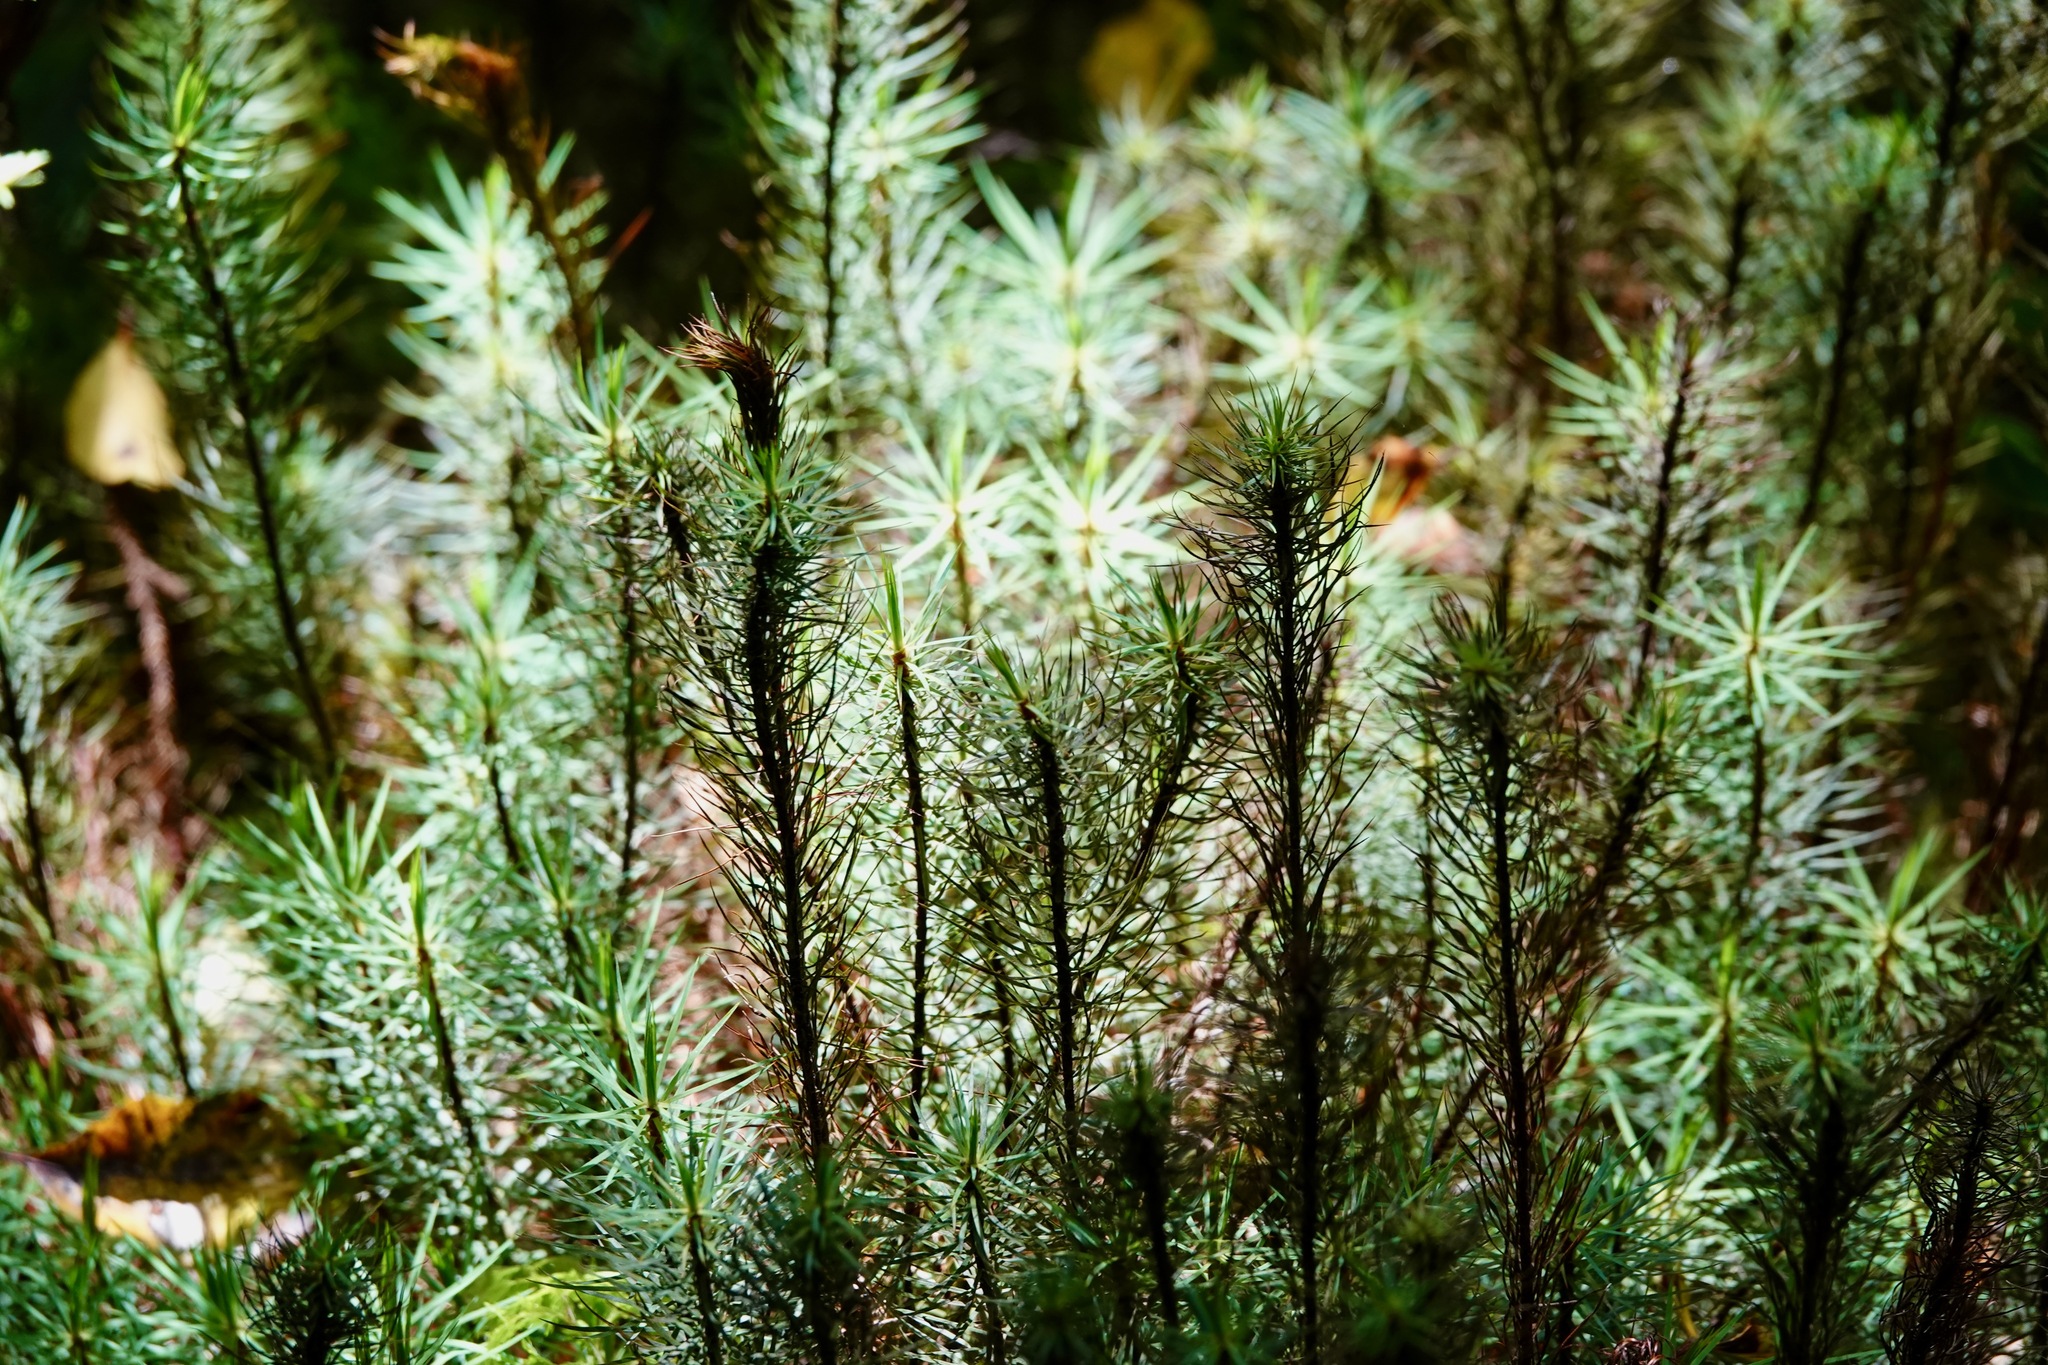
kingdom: Plantae
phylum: Bryophyta
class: Polytrichopsida
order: Polytrichales
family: Polytrichaceae
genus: Dawsonia
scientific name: Dawsonia superba
